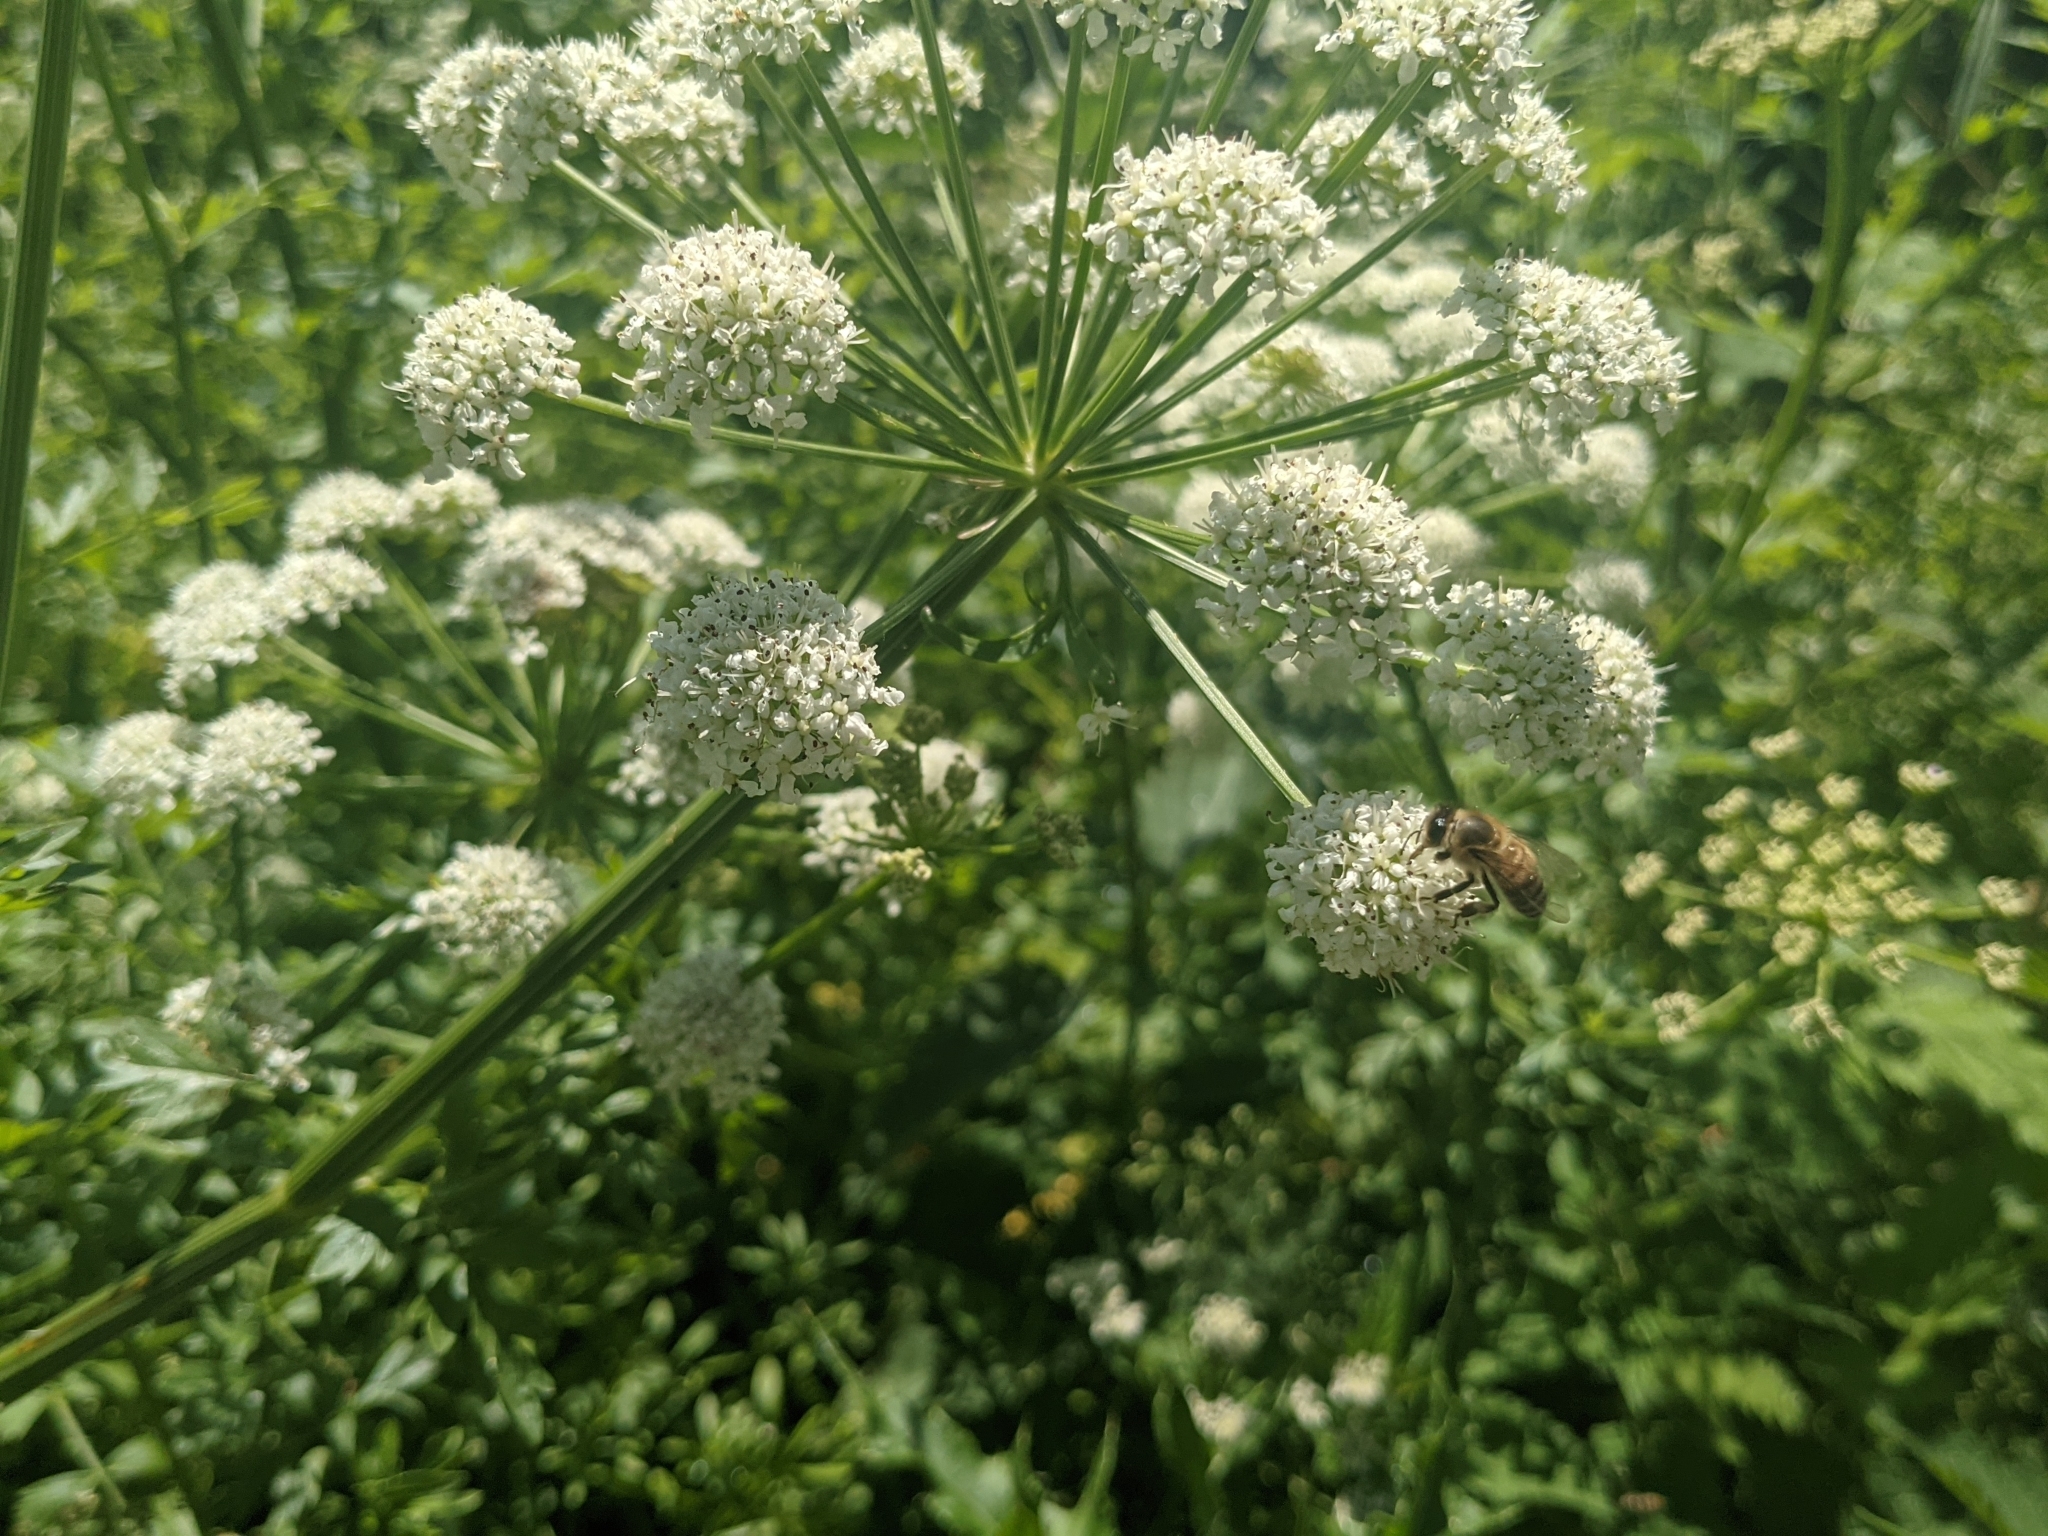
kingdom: Plantae
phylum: Tracheophyta
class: Magnoliopsida
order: Apiales
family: Apiaceae
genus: Oenanthe
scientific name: Oenanthe crocata
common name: Hemlock water-dropwort
